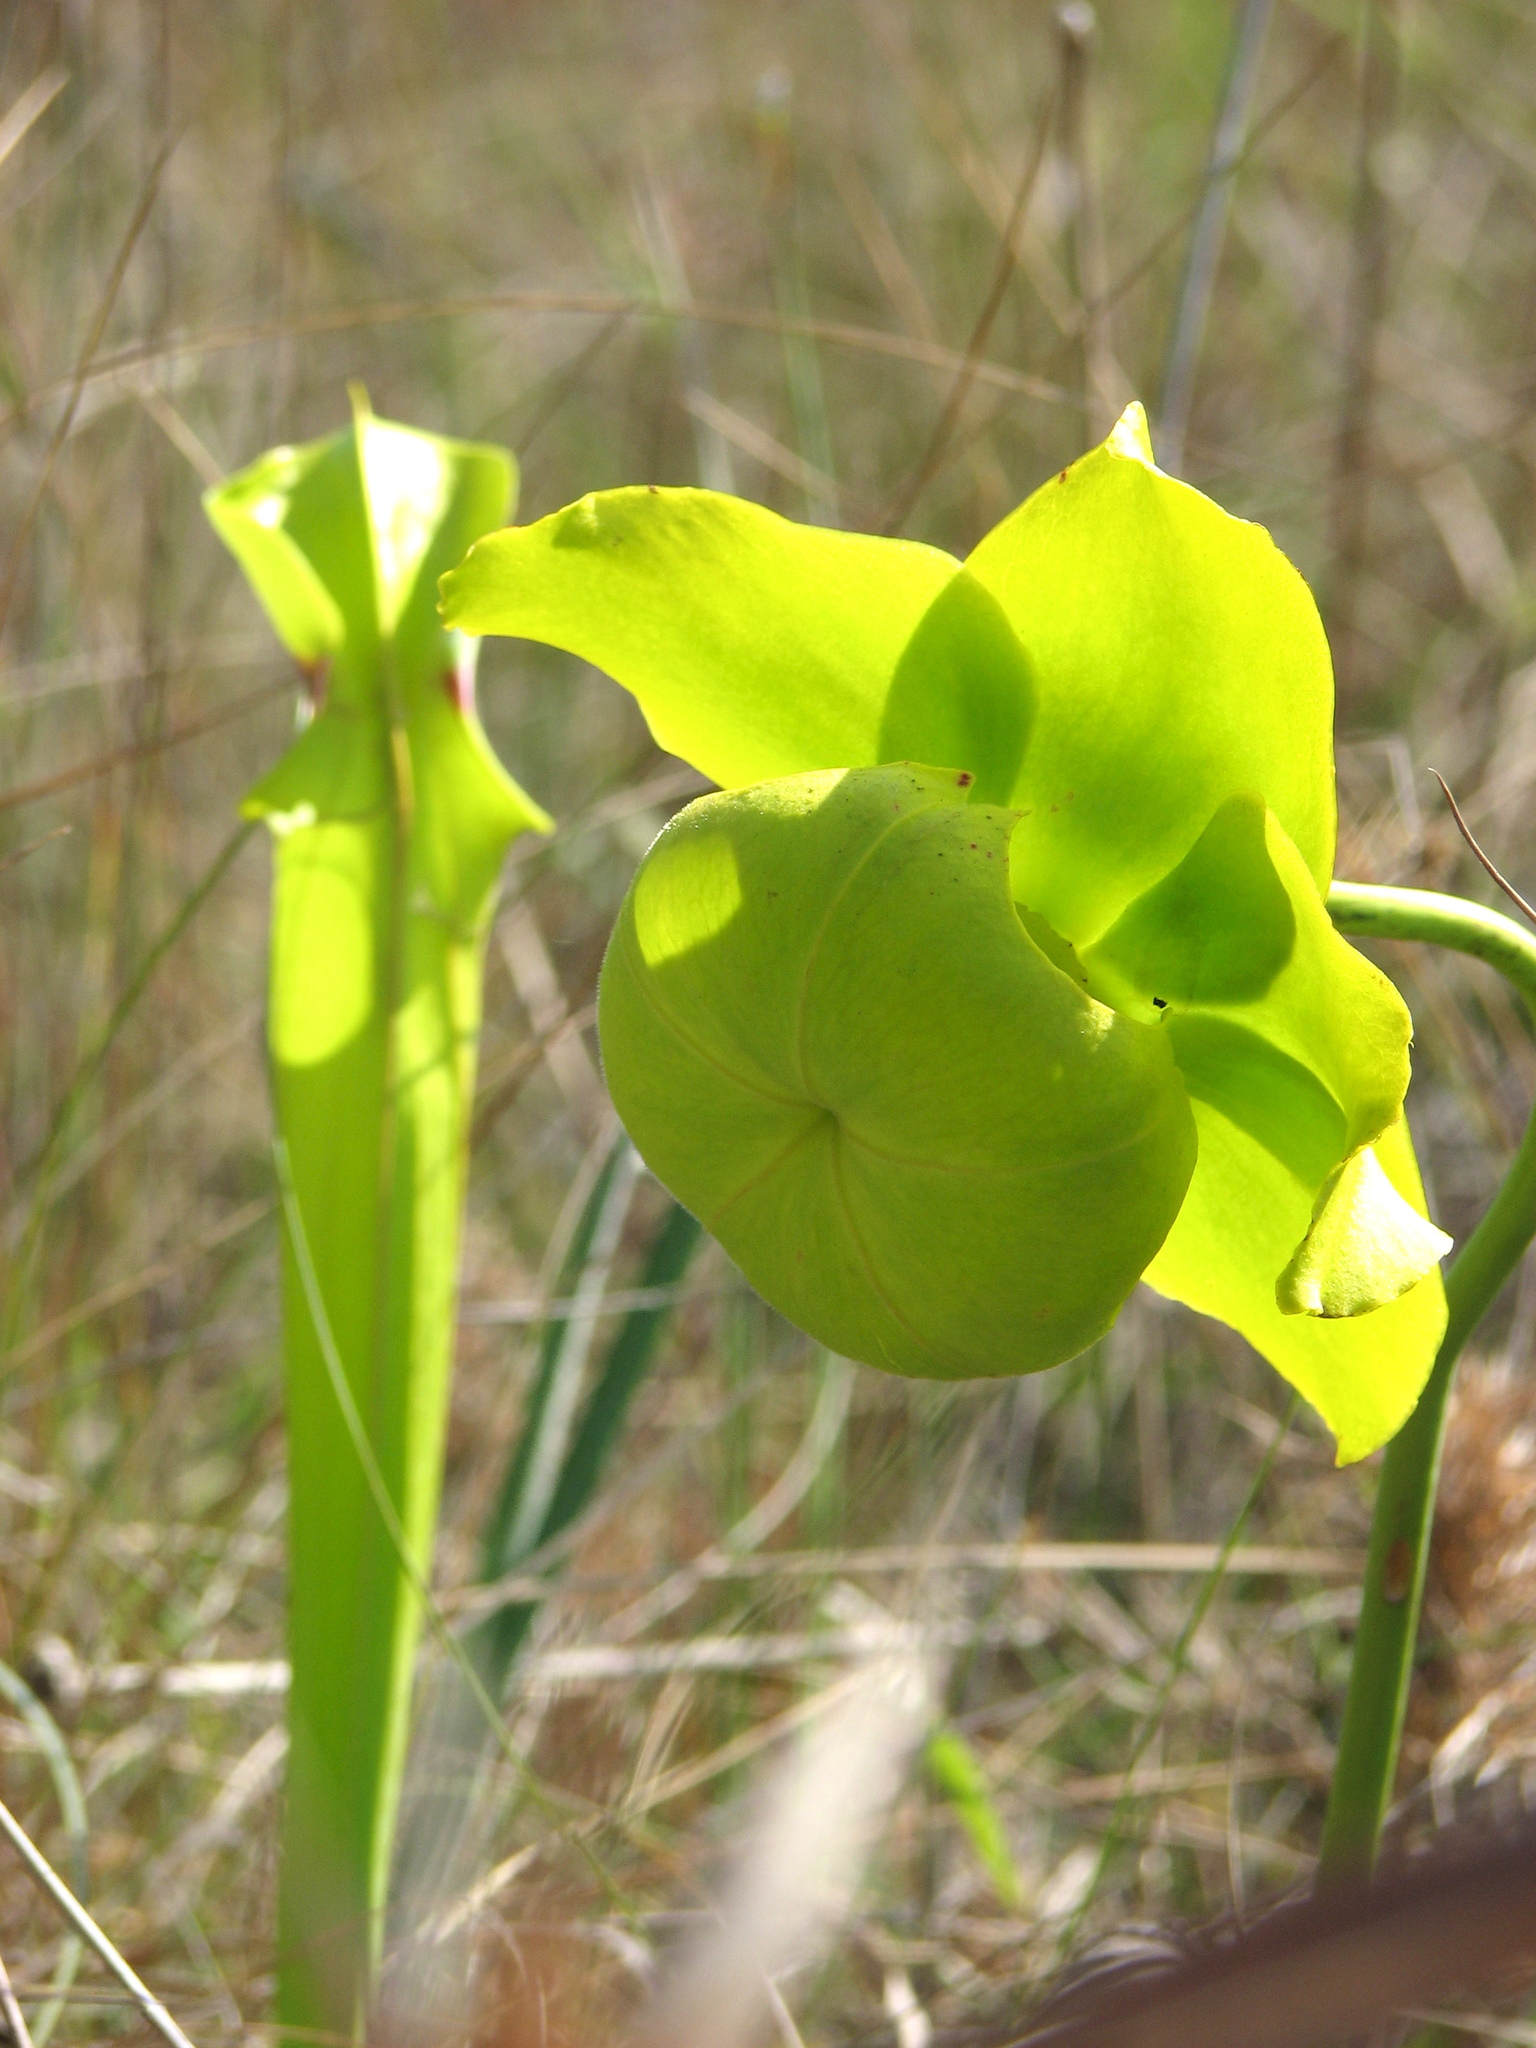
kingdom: Plantae
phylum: Tracheophyta
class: Magnoliopsida
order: Ericales
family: Sarraceniaceae
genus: Sarracenia
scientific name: Sarracenia flava
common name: Trumpets
